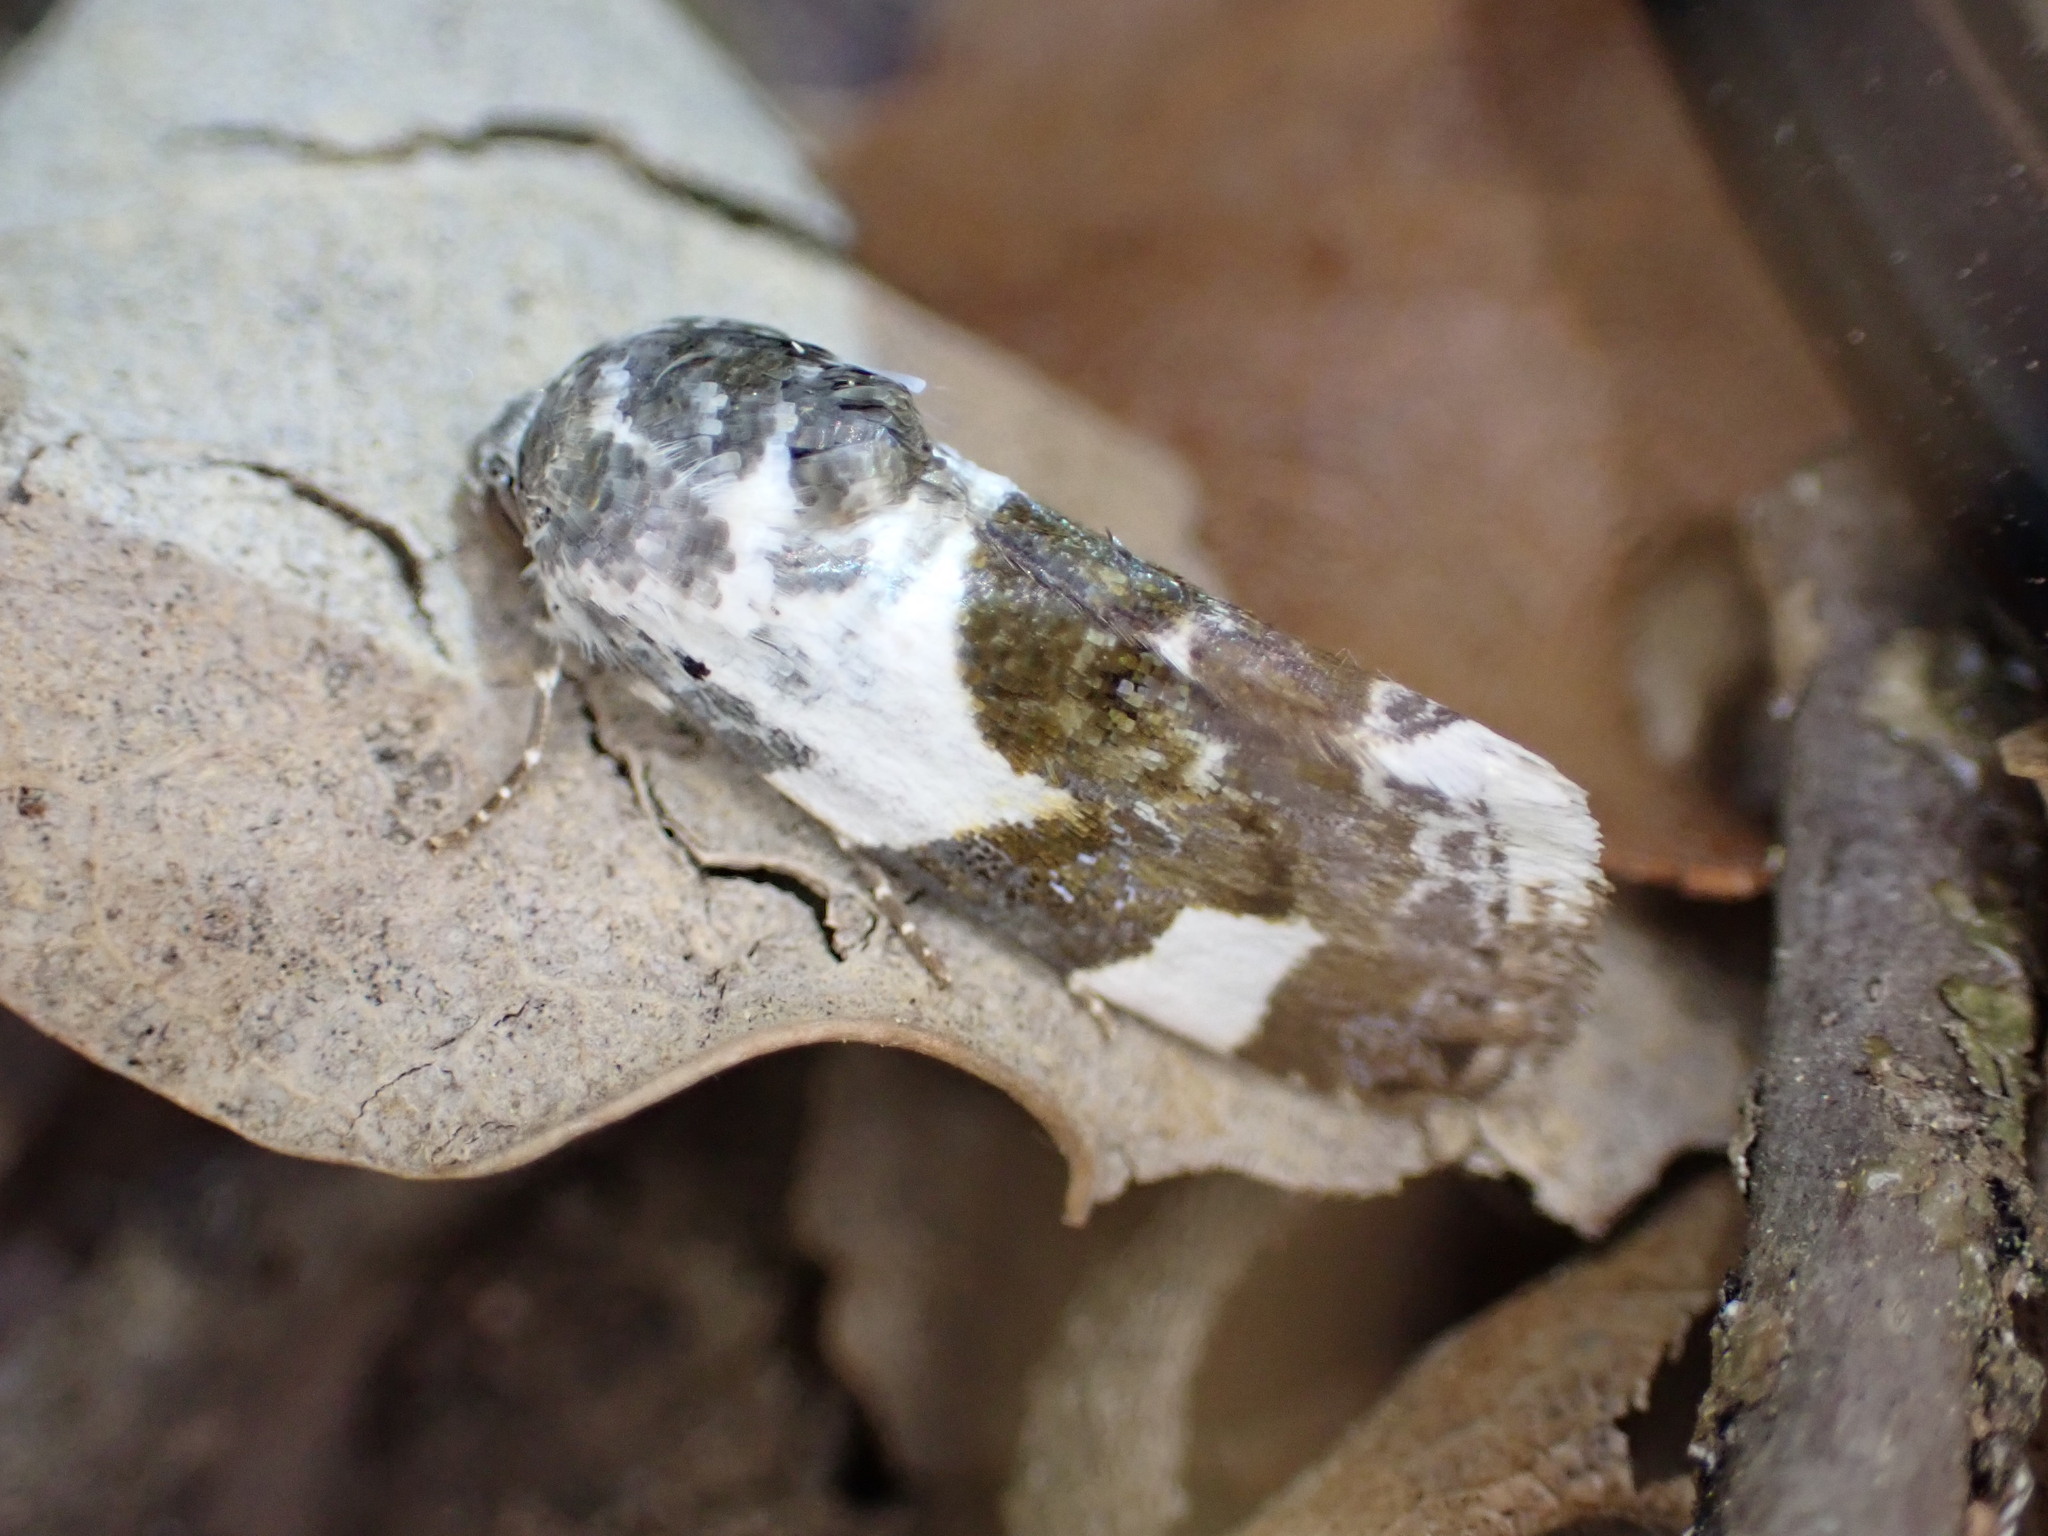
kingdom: Animalia
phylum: Arthropoda
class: Insecta
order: Lepidoptera
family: Noctuidae
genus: Acontia
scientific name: Acontia lucida
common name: Pale shoulder
